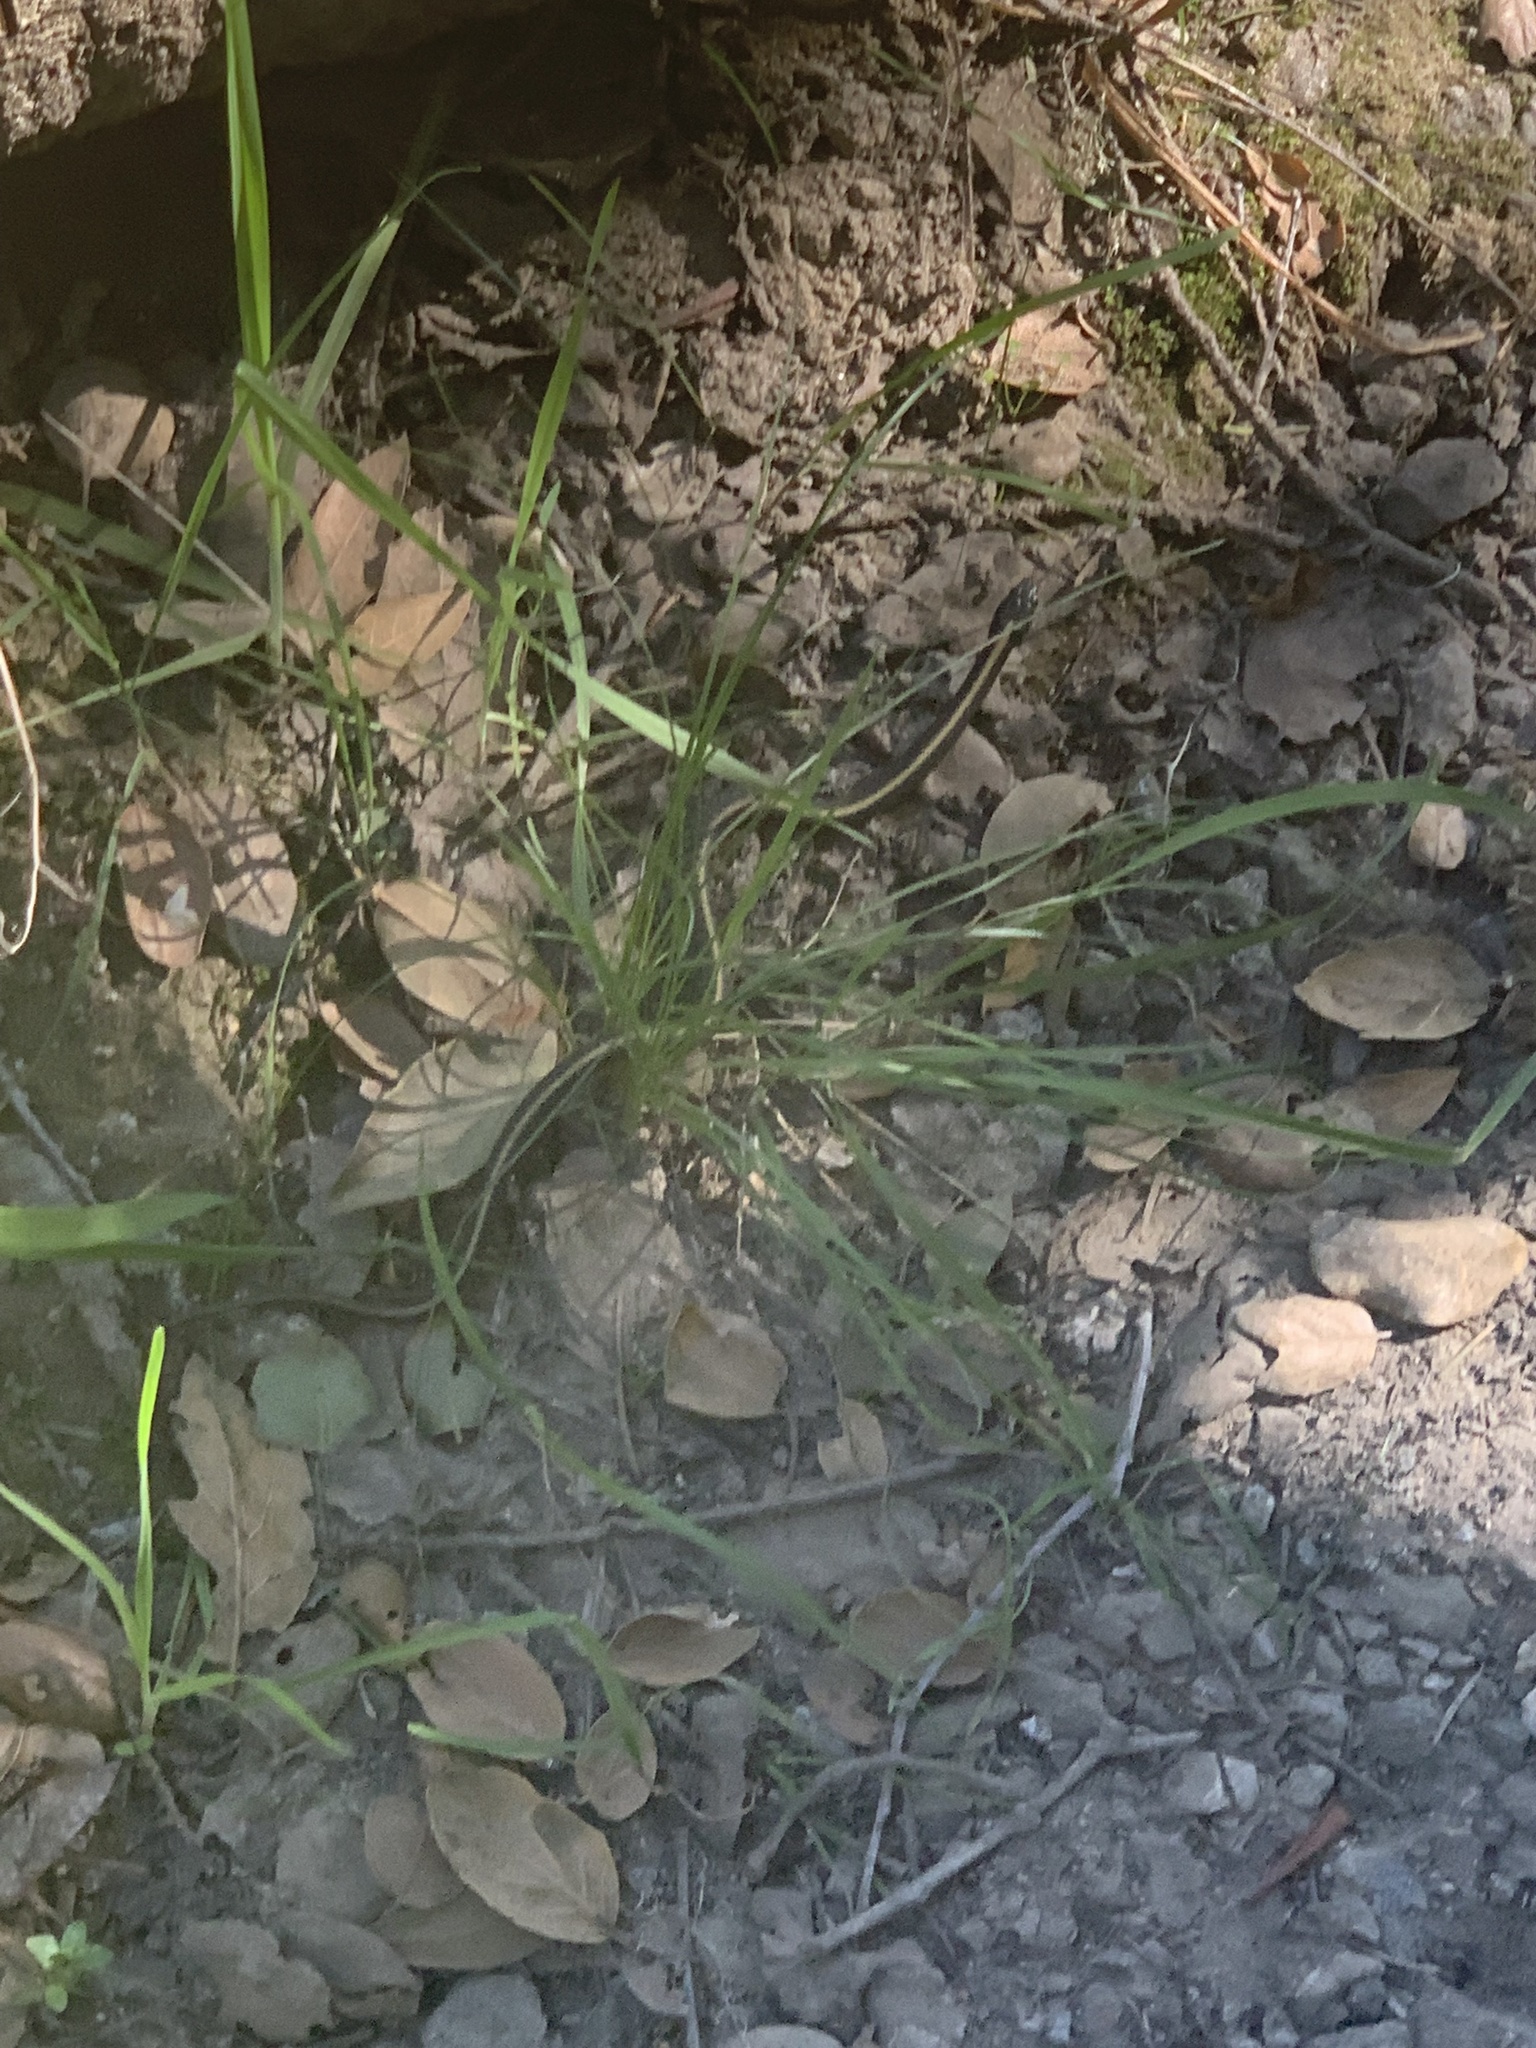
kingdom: Animalia
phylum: Chordata
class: Squamata
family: Colubridae
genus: Thamnophis
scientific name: Thamnophis atratus
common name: Pacific coast aquatic garter snake
